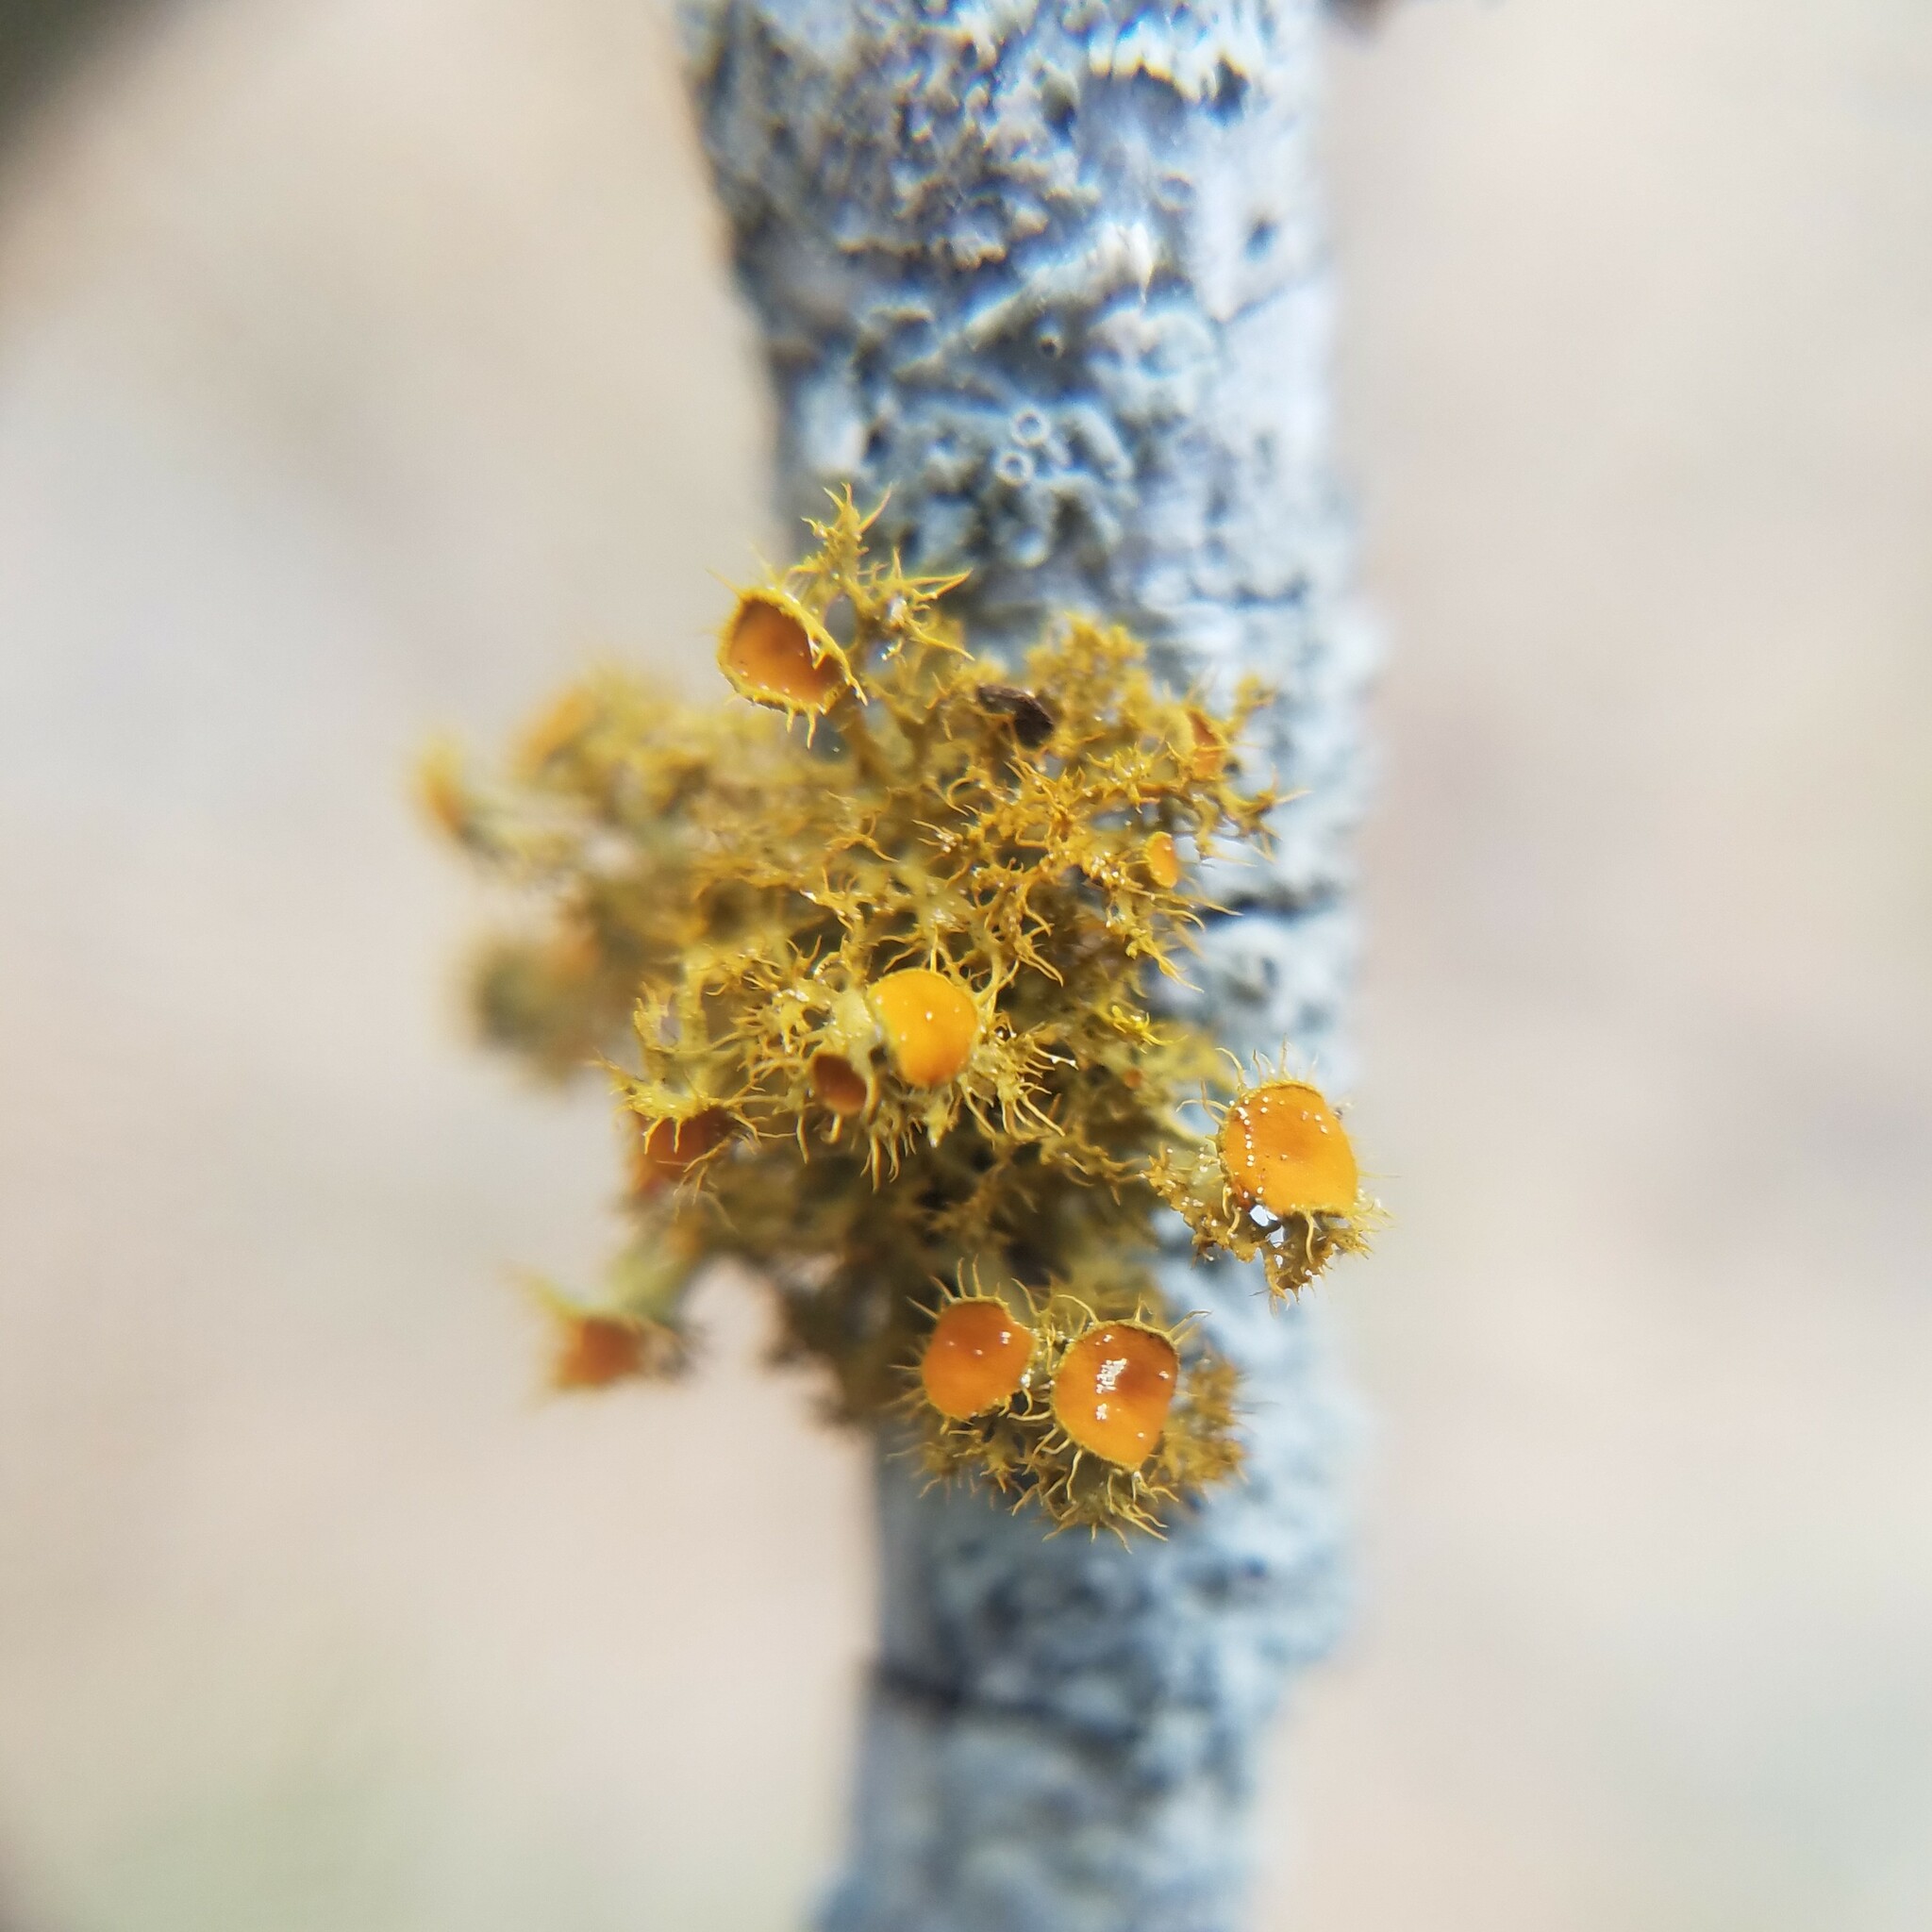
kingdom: Fungi
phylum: Ascomycota
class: Lecanoromycetes
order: Teloschistales
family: Teloschistaceae
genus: Niorma
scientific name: Niorma chrysophthalma
